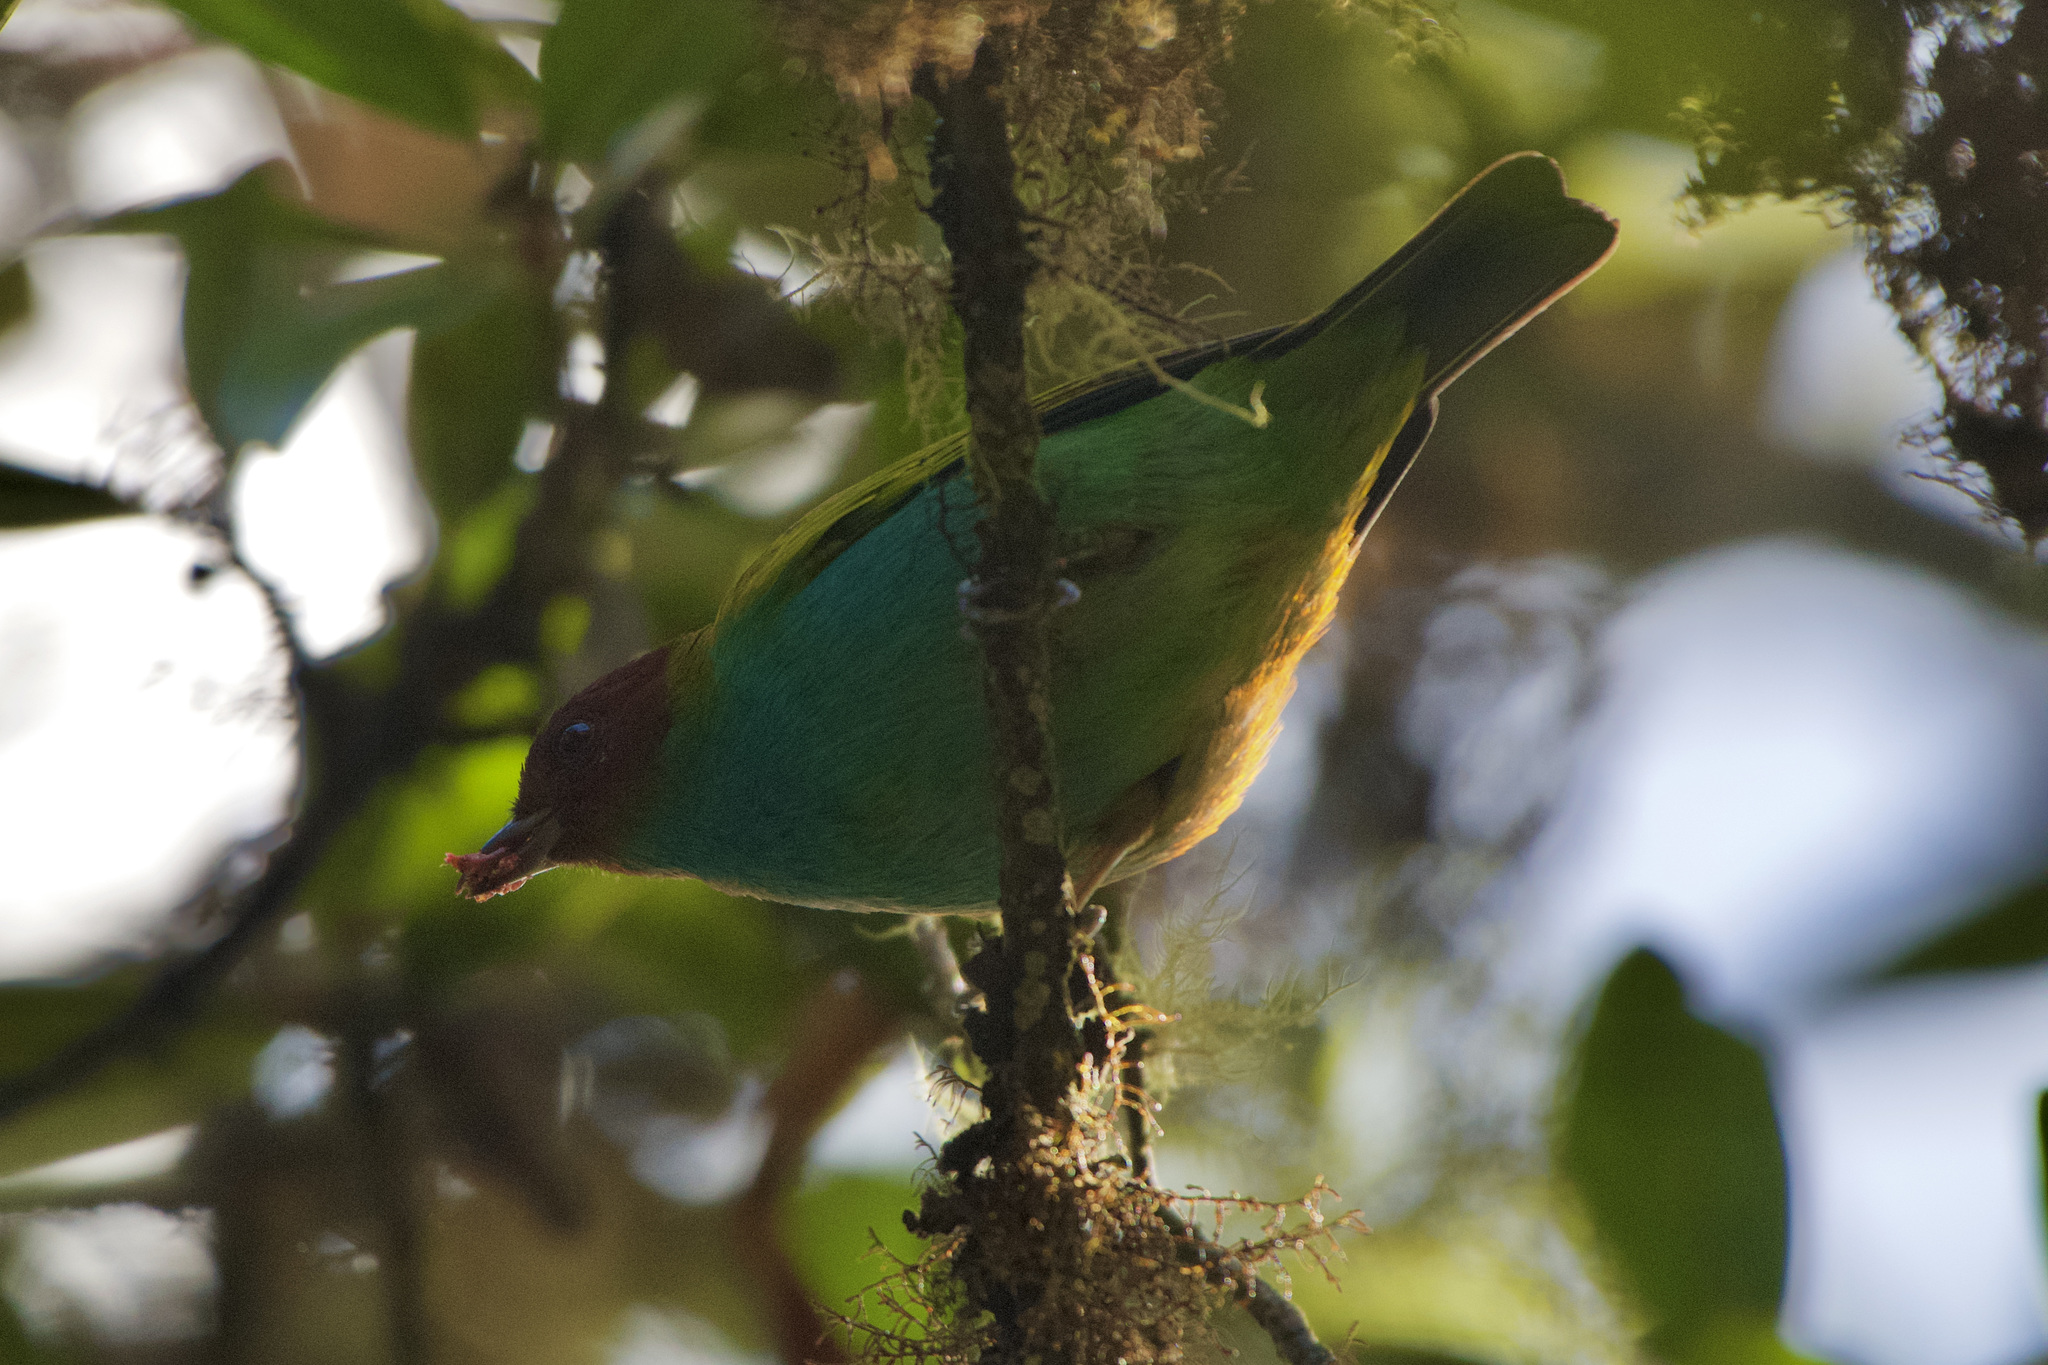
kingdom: Animalia
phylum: Chordata
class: Aves
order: Passeriformes
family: Thraupidae
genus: Tangara
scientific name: Tangara gyrola
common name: Bay-headed tanager
